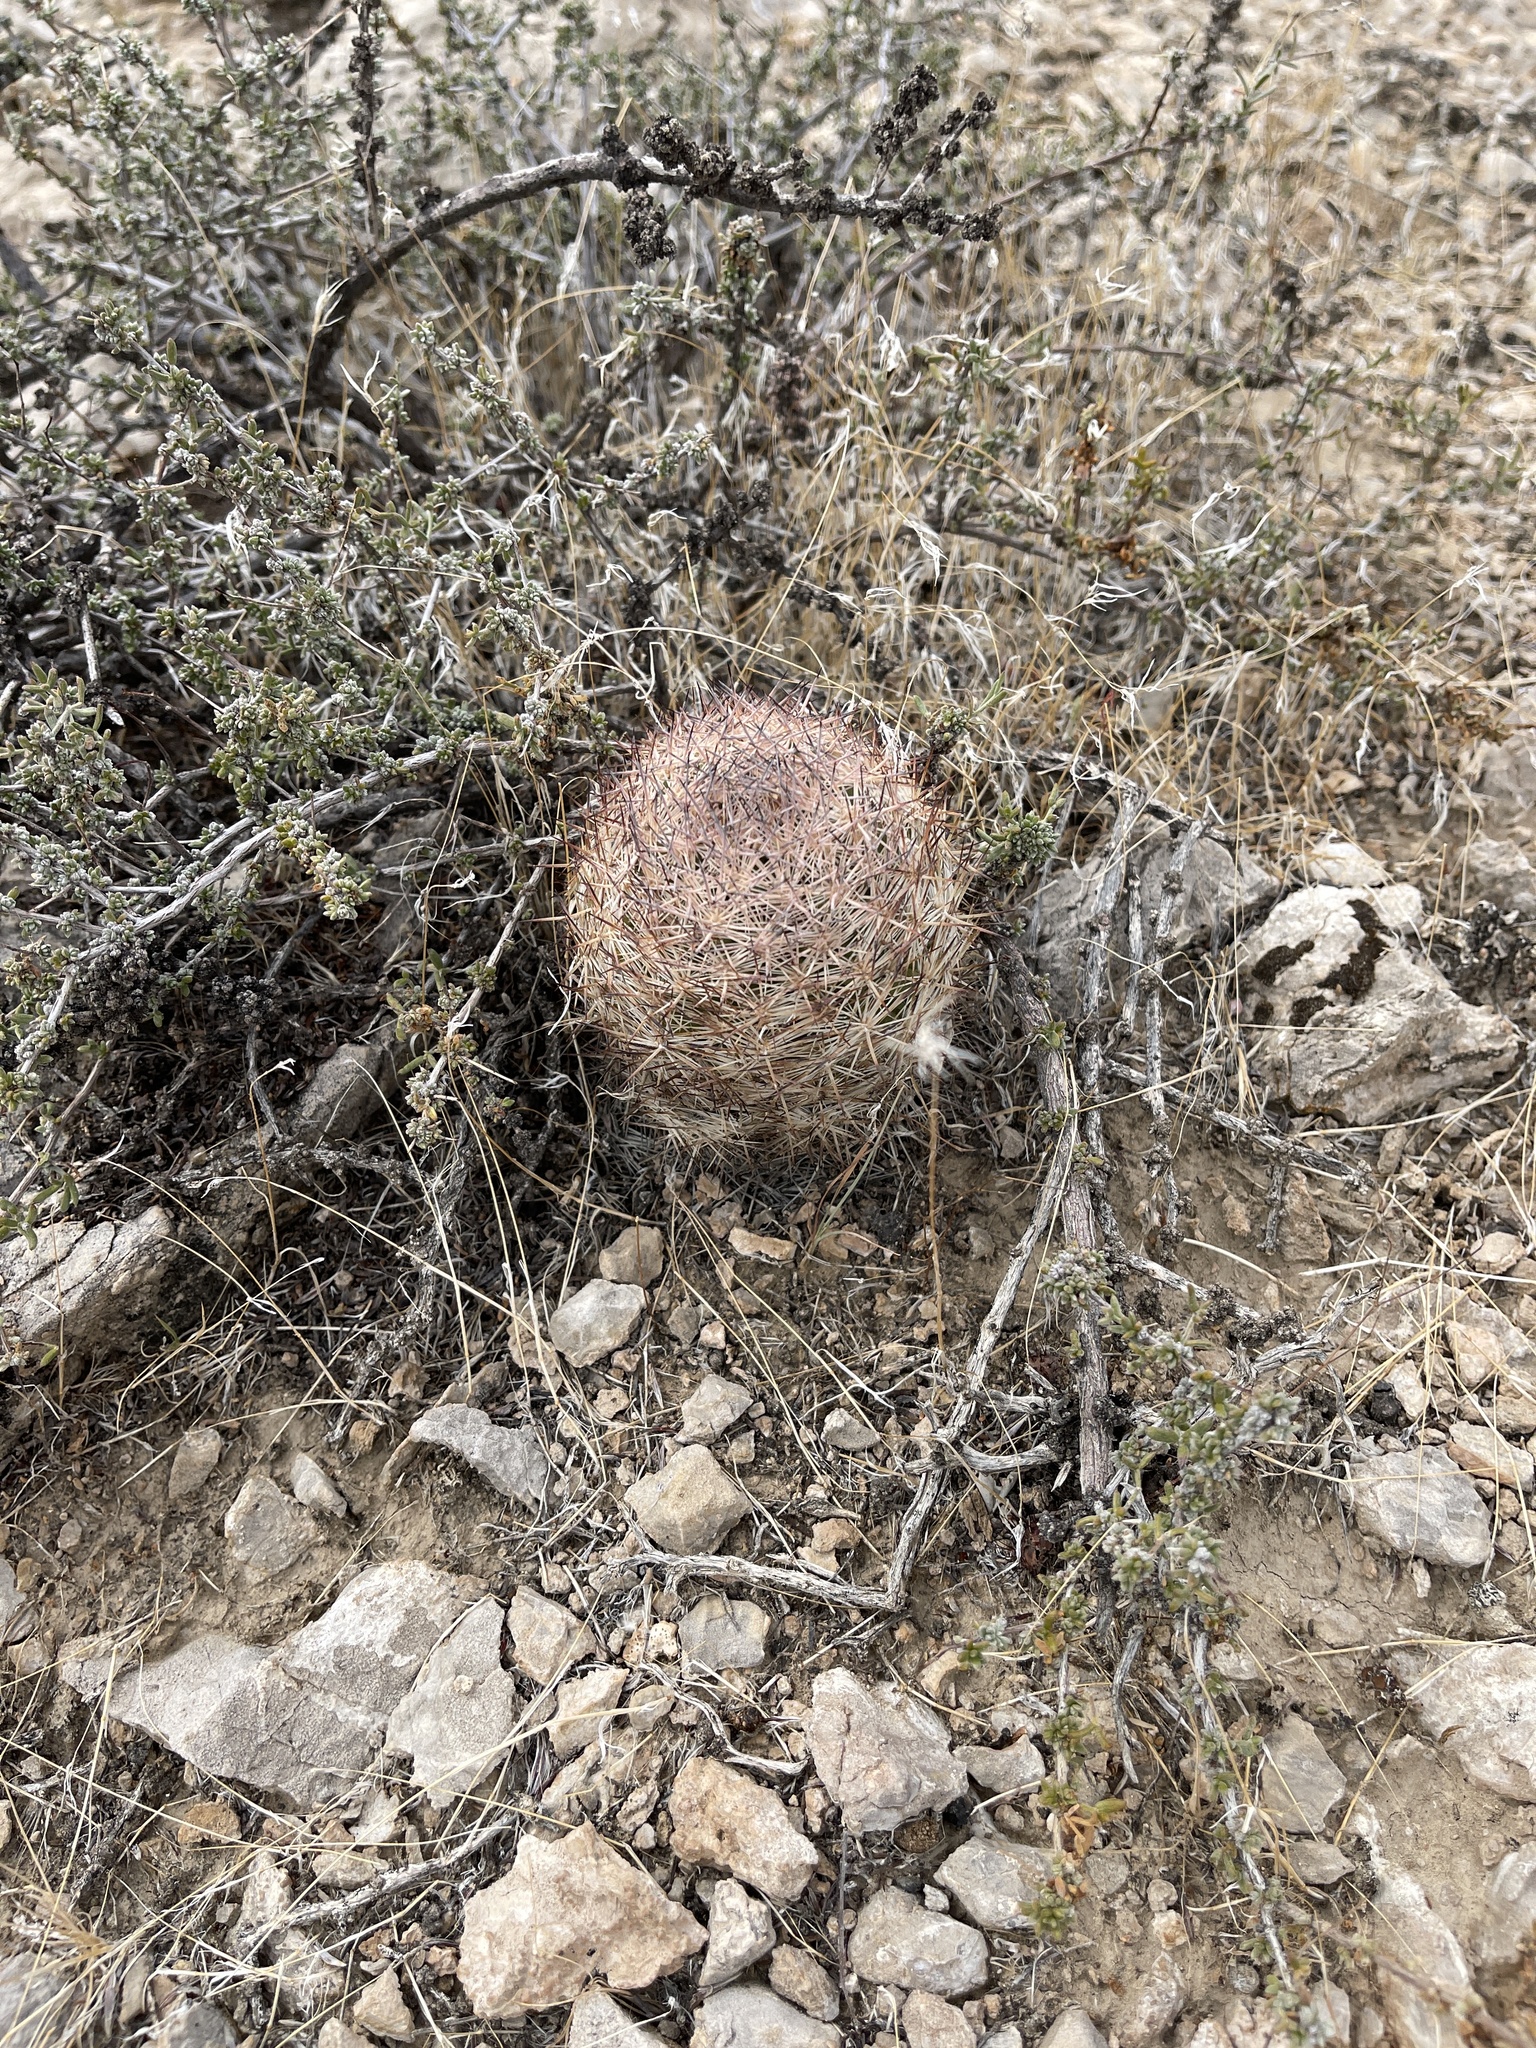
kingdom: Plantae
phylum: Tracheophyta
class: Magnoliopsida
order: Caryophyllales
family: Cactaceae
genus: Pelecyphora
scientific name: Pelecyphora dasyacantha
